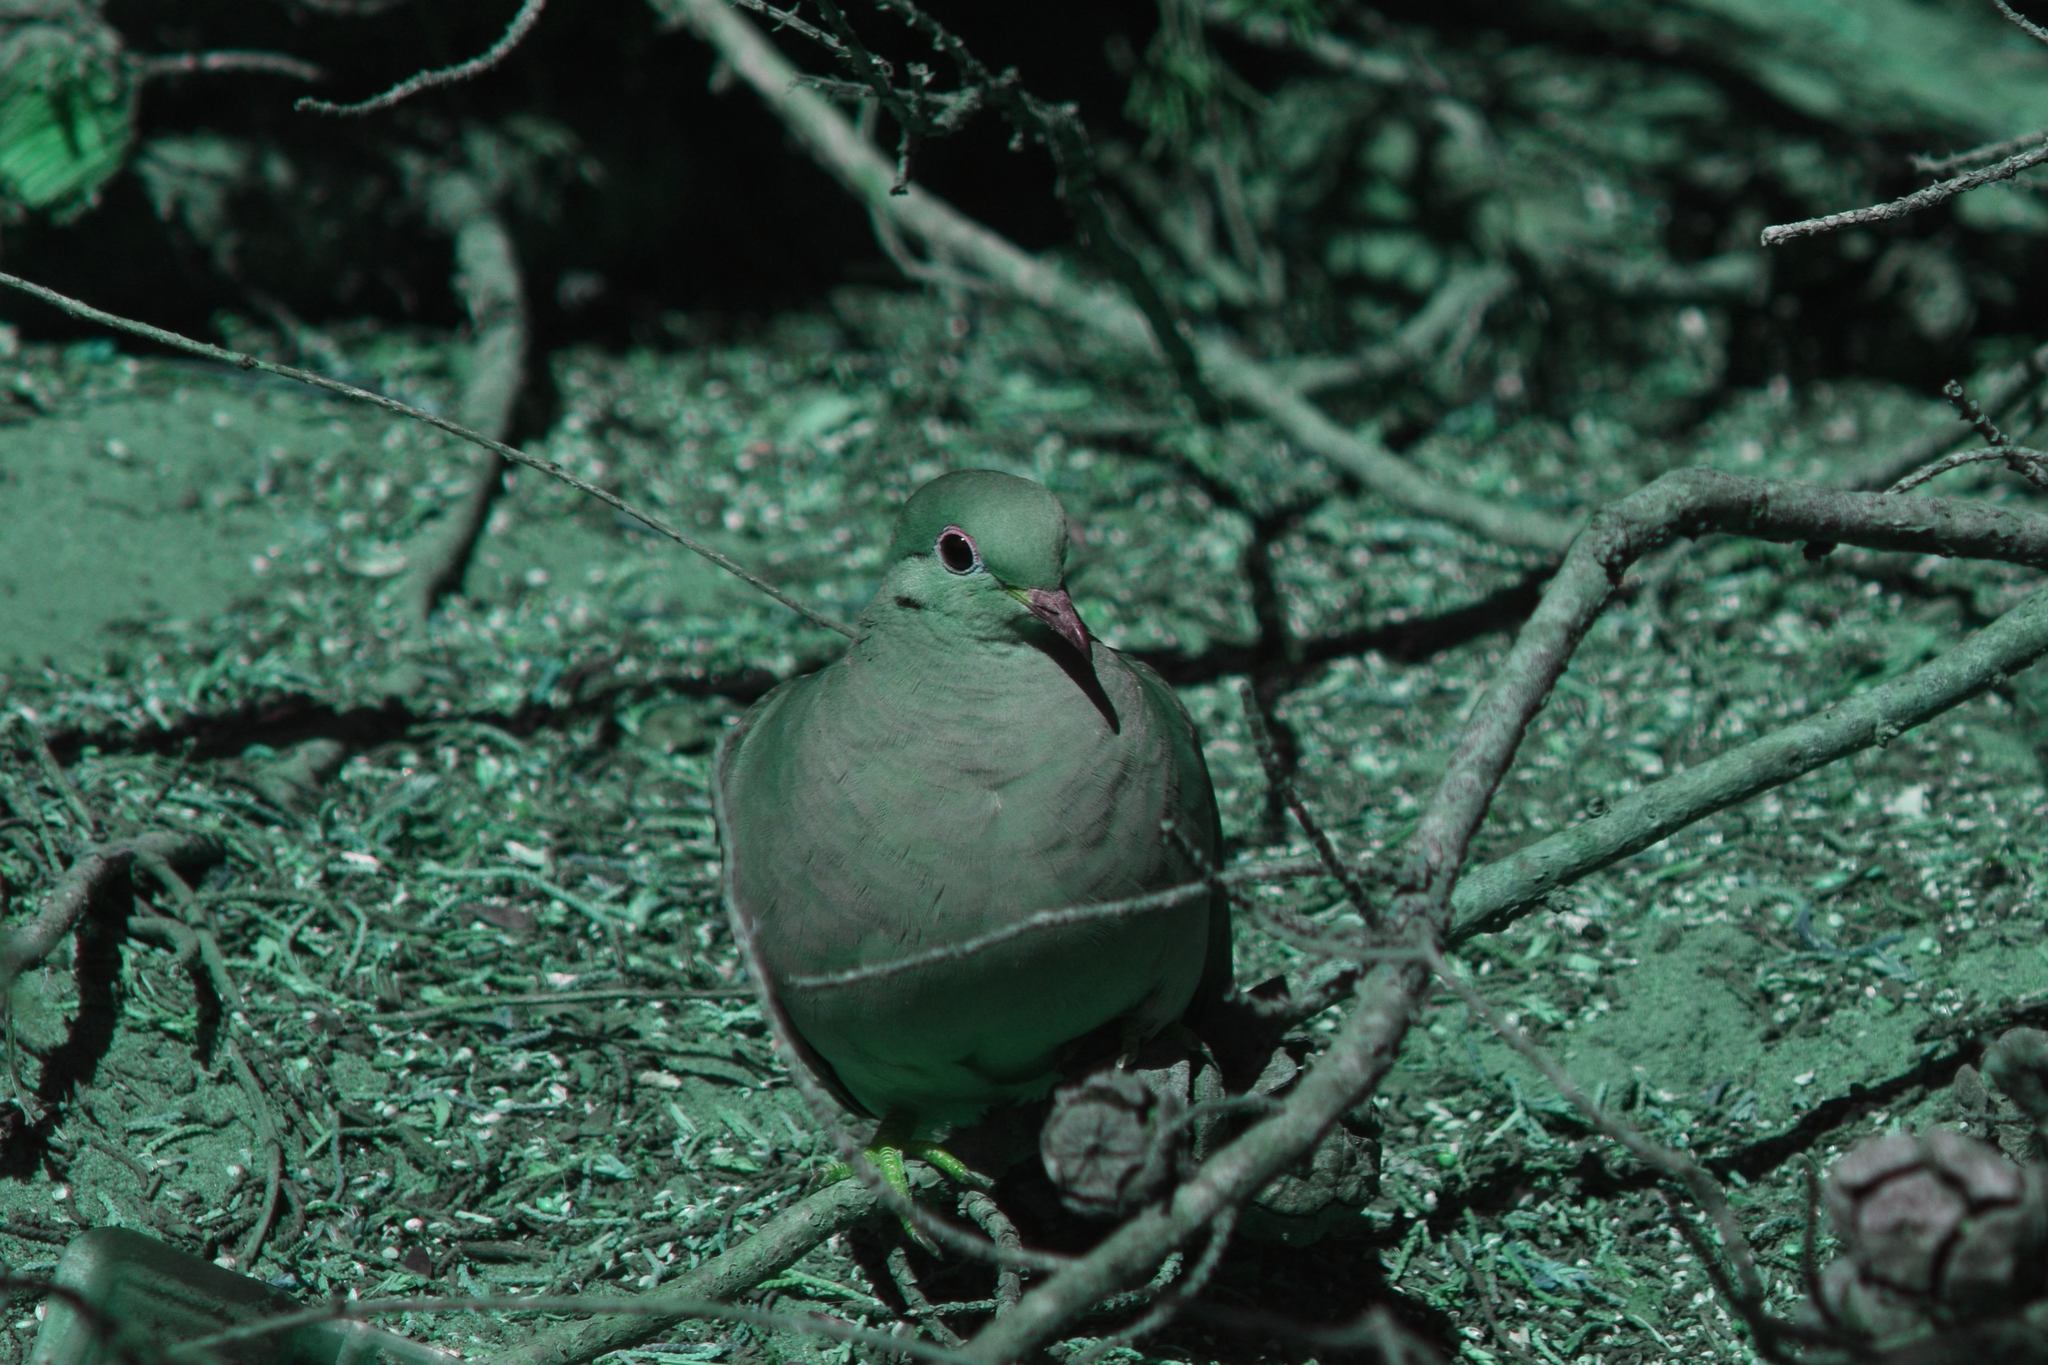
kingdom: Animalia
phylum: Chordata
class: Aves
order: Columbiformes
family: Columbidae
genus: Zenaida
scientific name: Zenaida macroura
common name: Mourning dove
